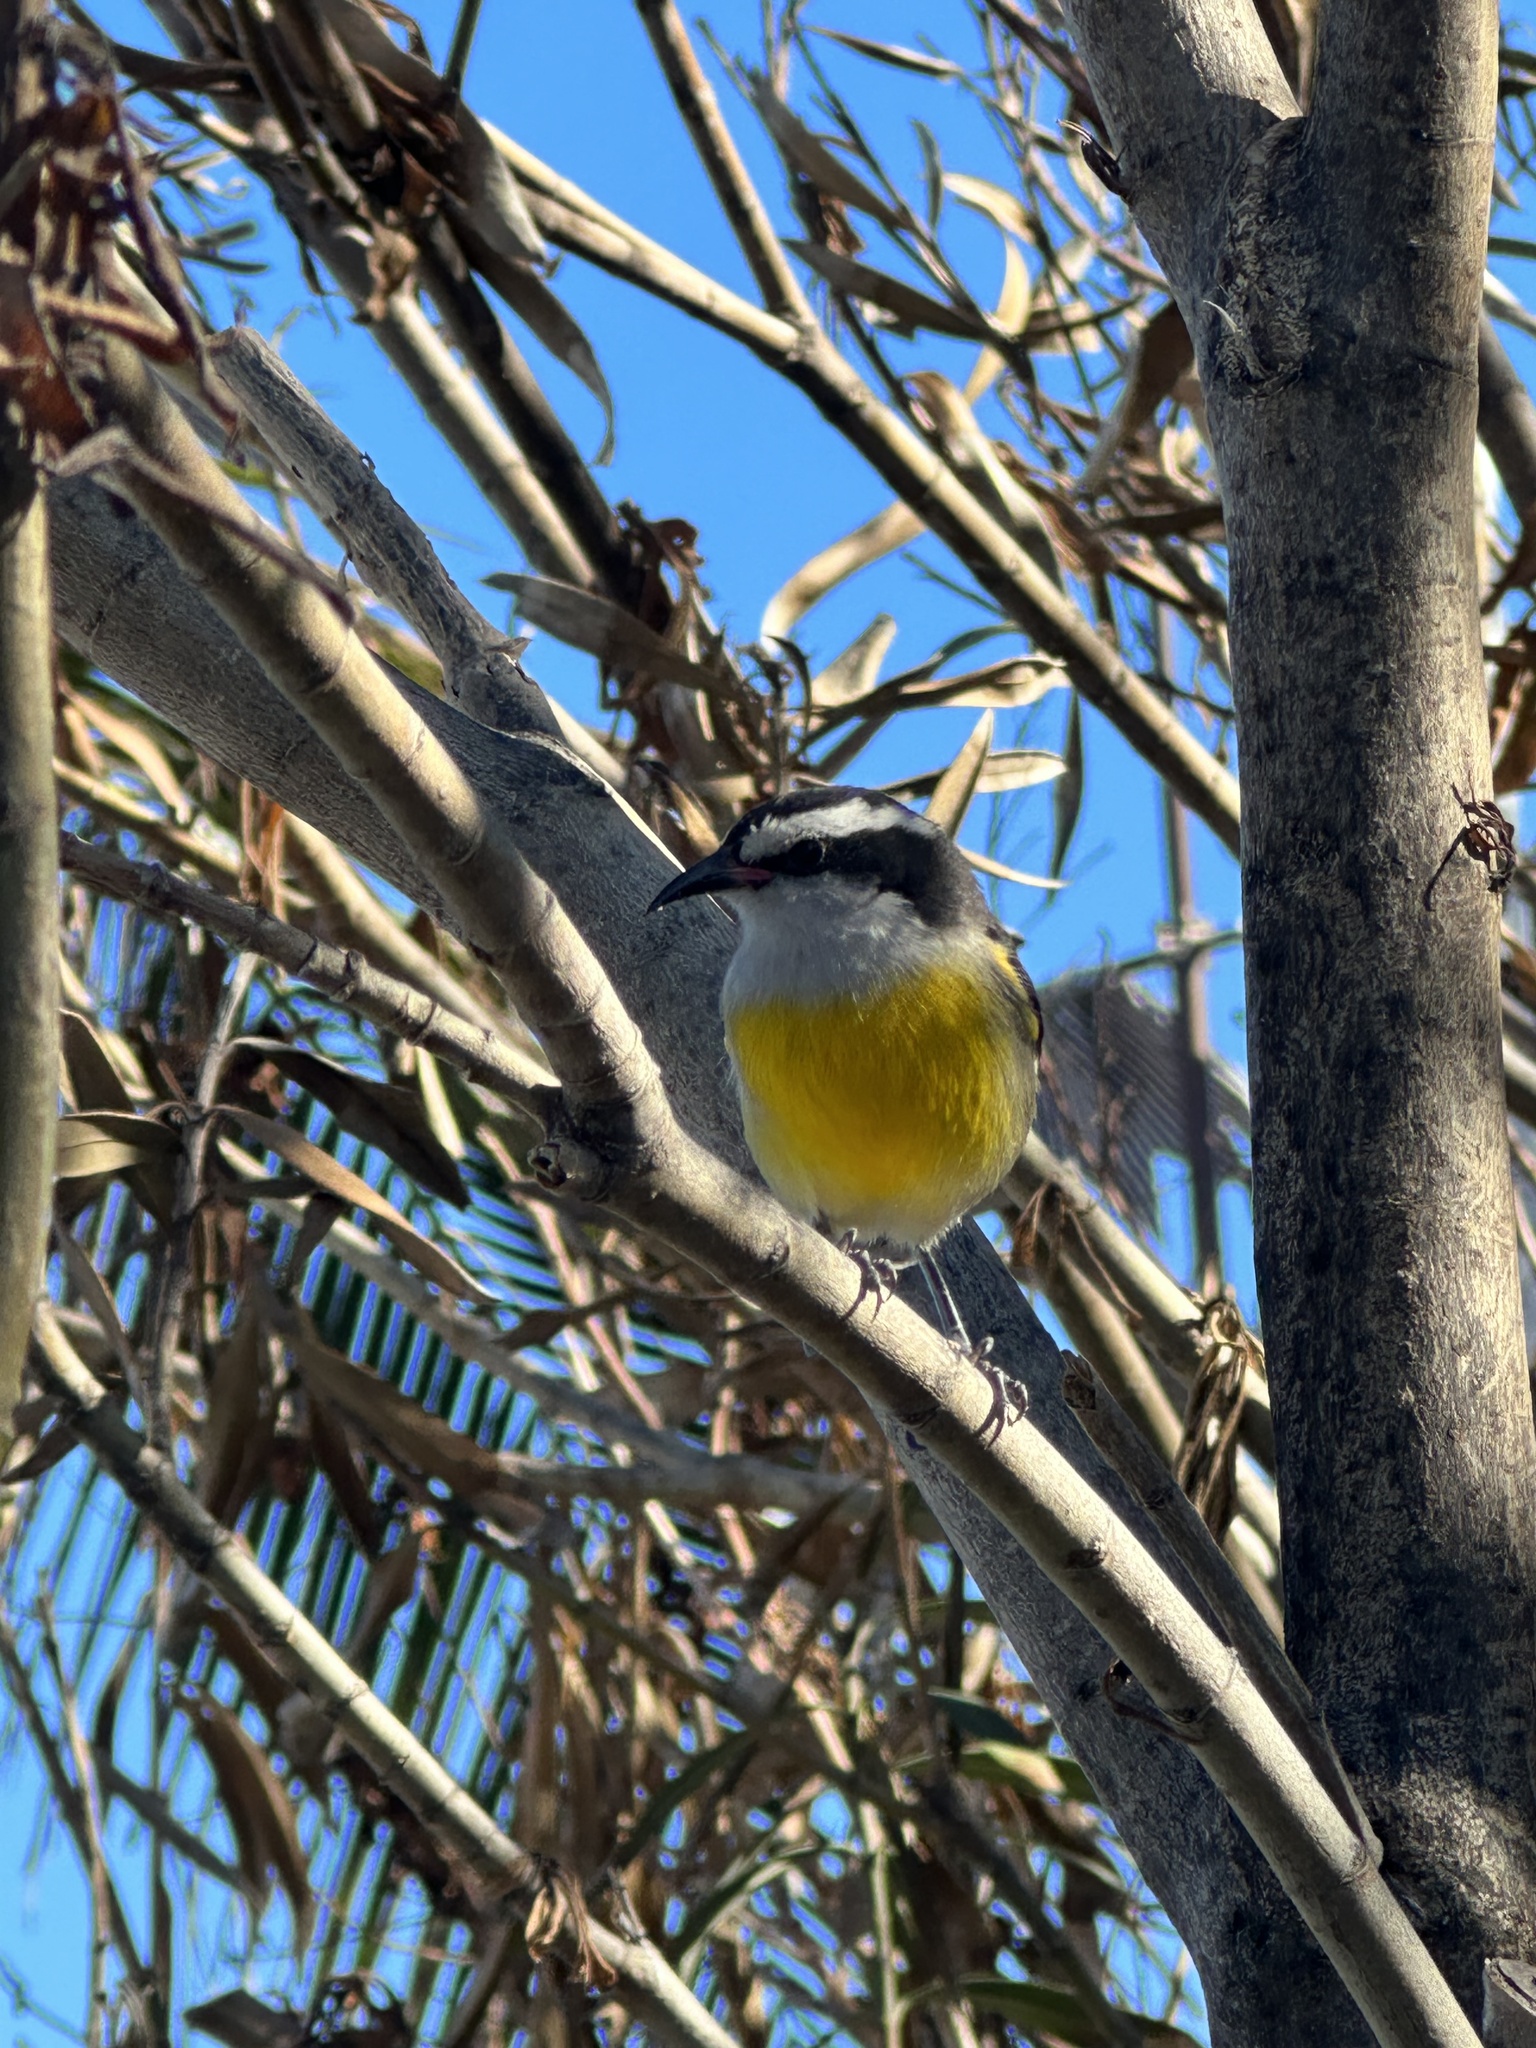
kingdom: Animalia
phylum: Chordata
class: Aves
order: Passeriformes
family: Thraupidae
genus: Coereba
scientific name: Coereba flaveola
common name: Bananaquit
